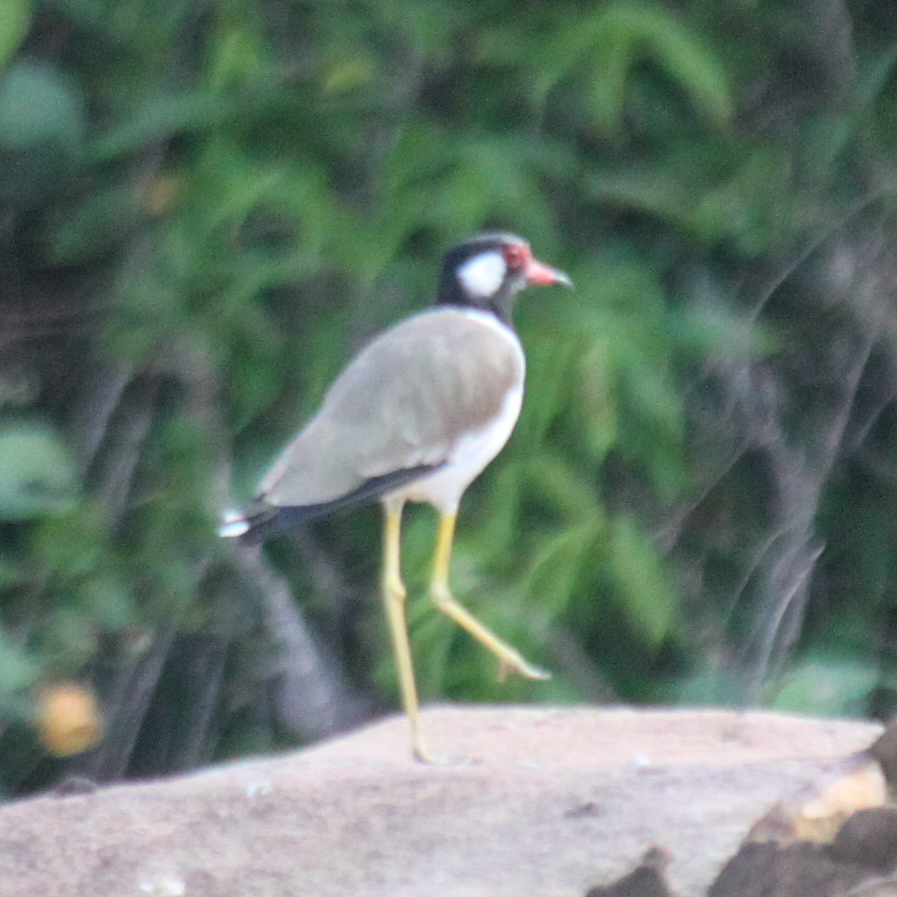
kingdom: Animalia
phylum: Chordata
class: Aves
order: Charadriiformes
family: Charadriidae
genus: Vanellus
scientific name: Vanellus indicus
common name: Red-wattled lapwing
